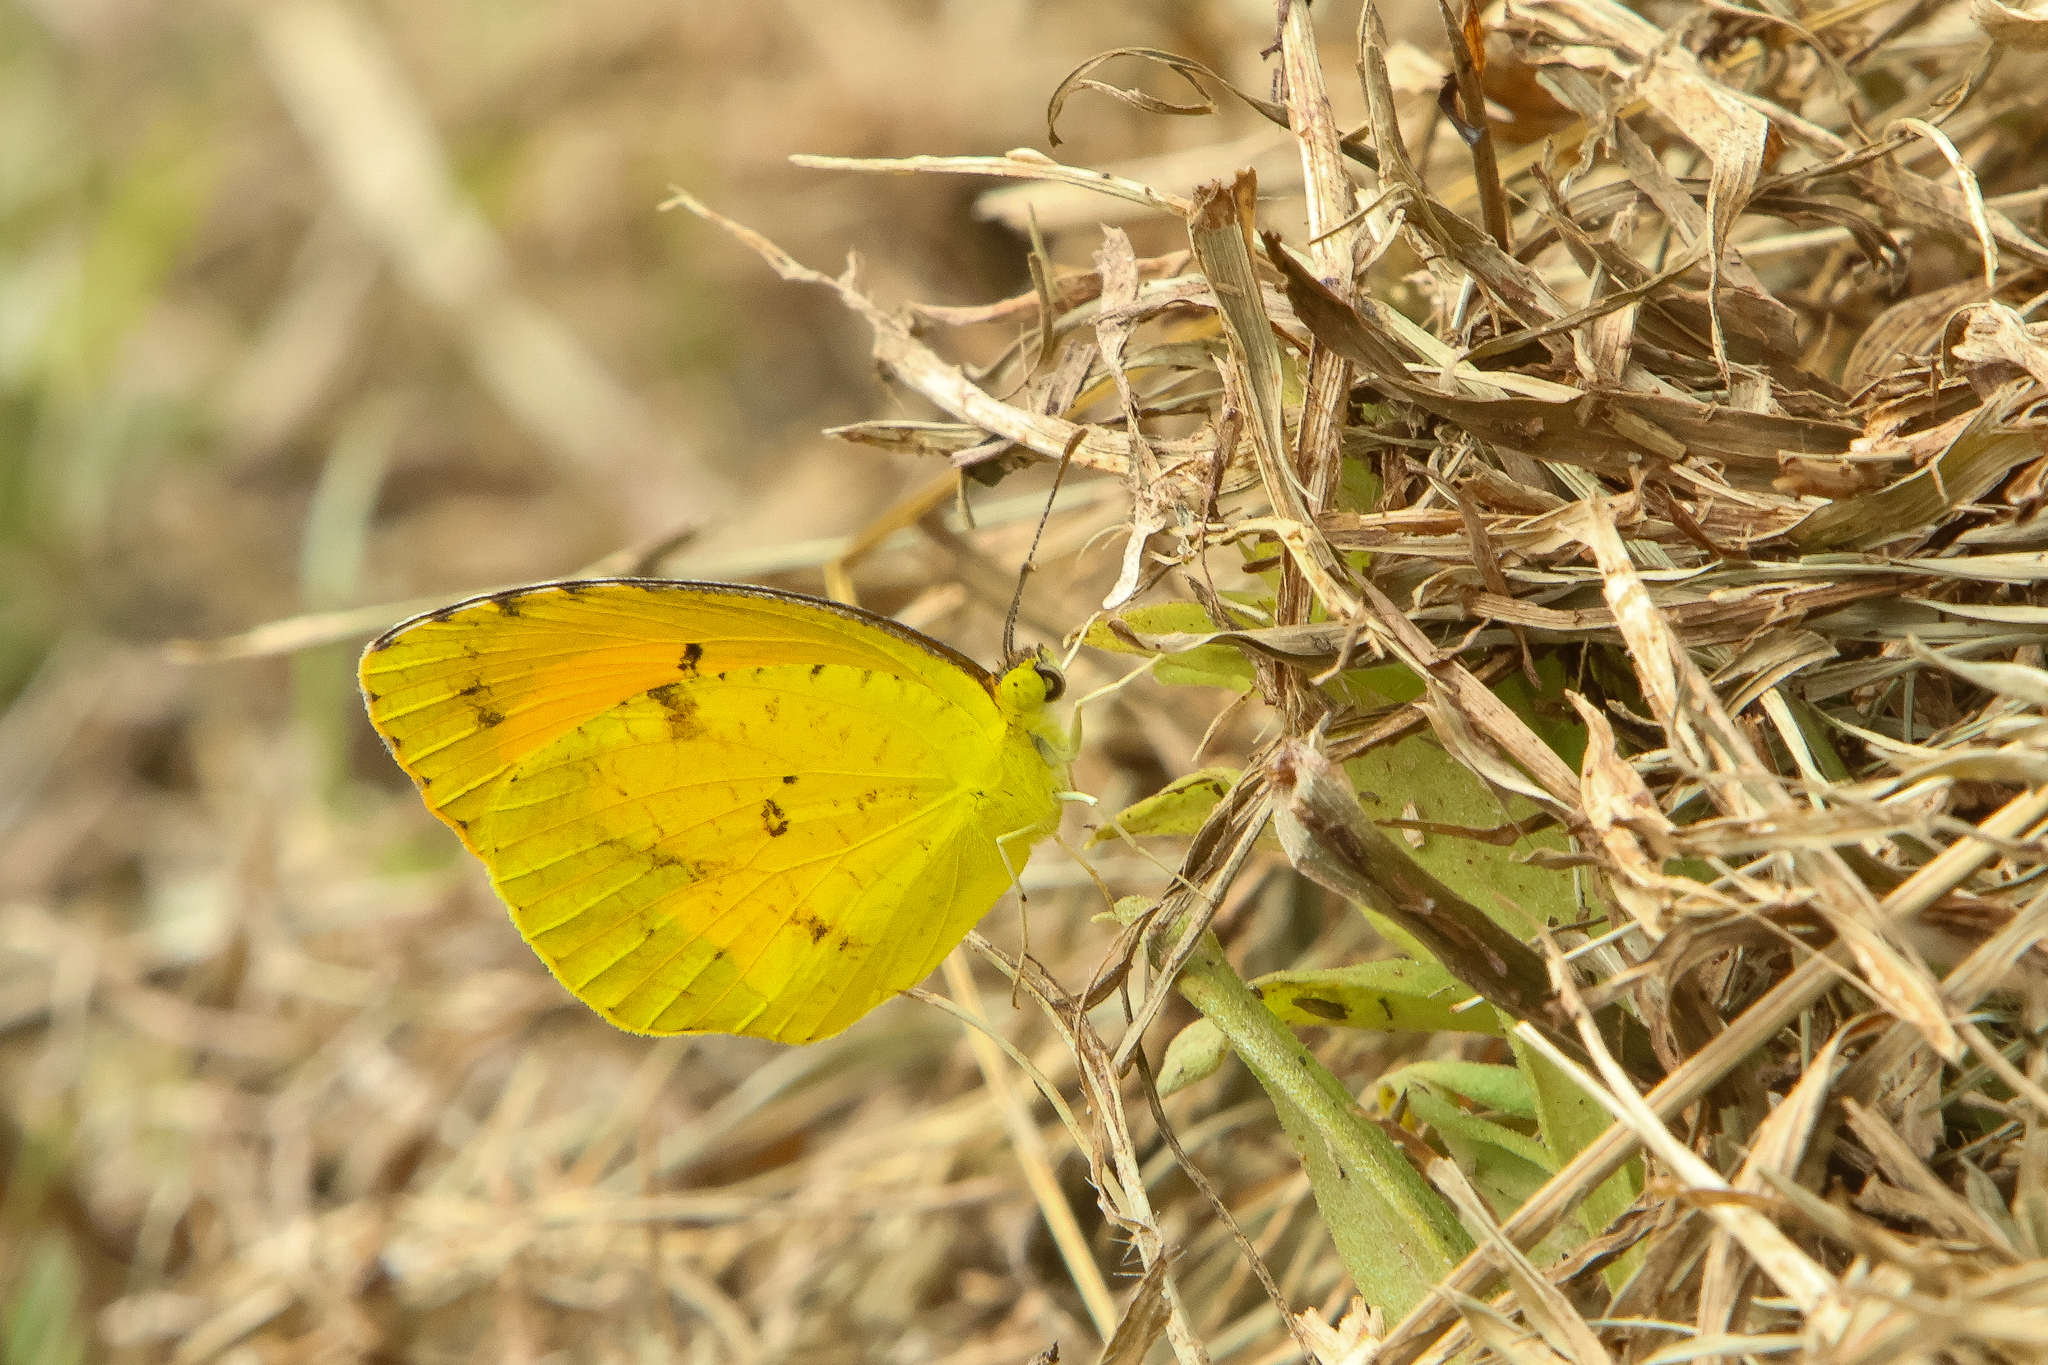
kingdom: Animalia
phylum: Arthropoda
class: Insecta
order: Lepidoptera
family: Pieridae
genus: Abaeis
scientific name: Abaeis nicippe
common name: Sleepy orange
